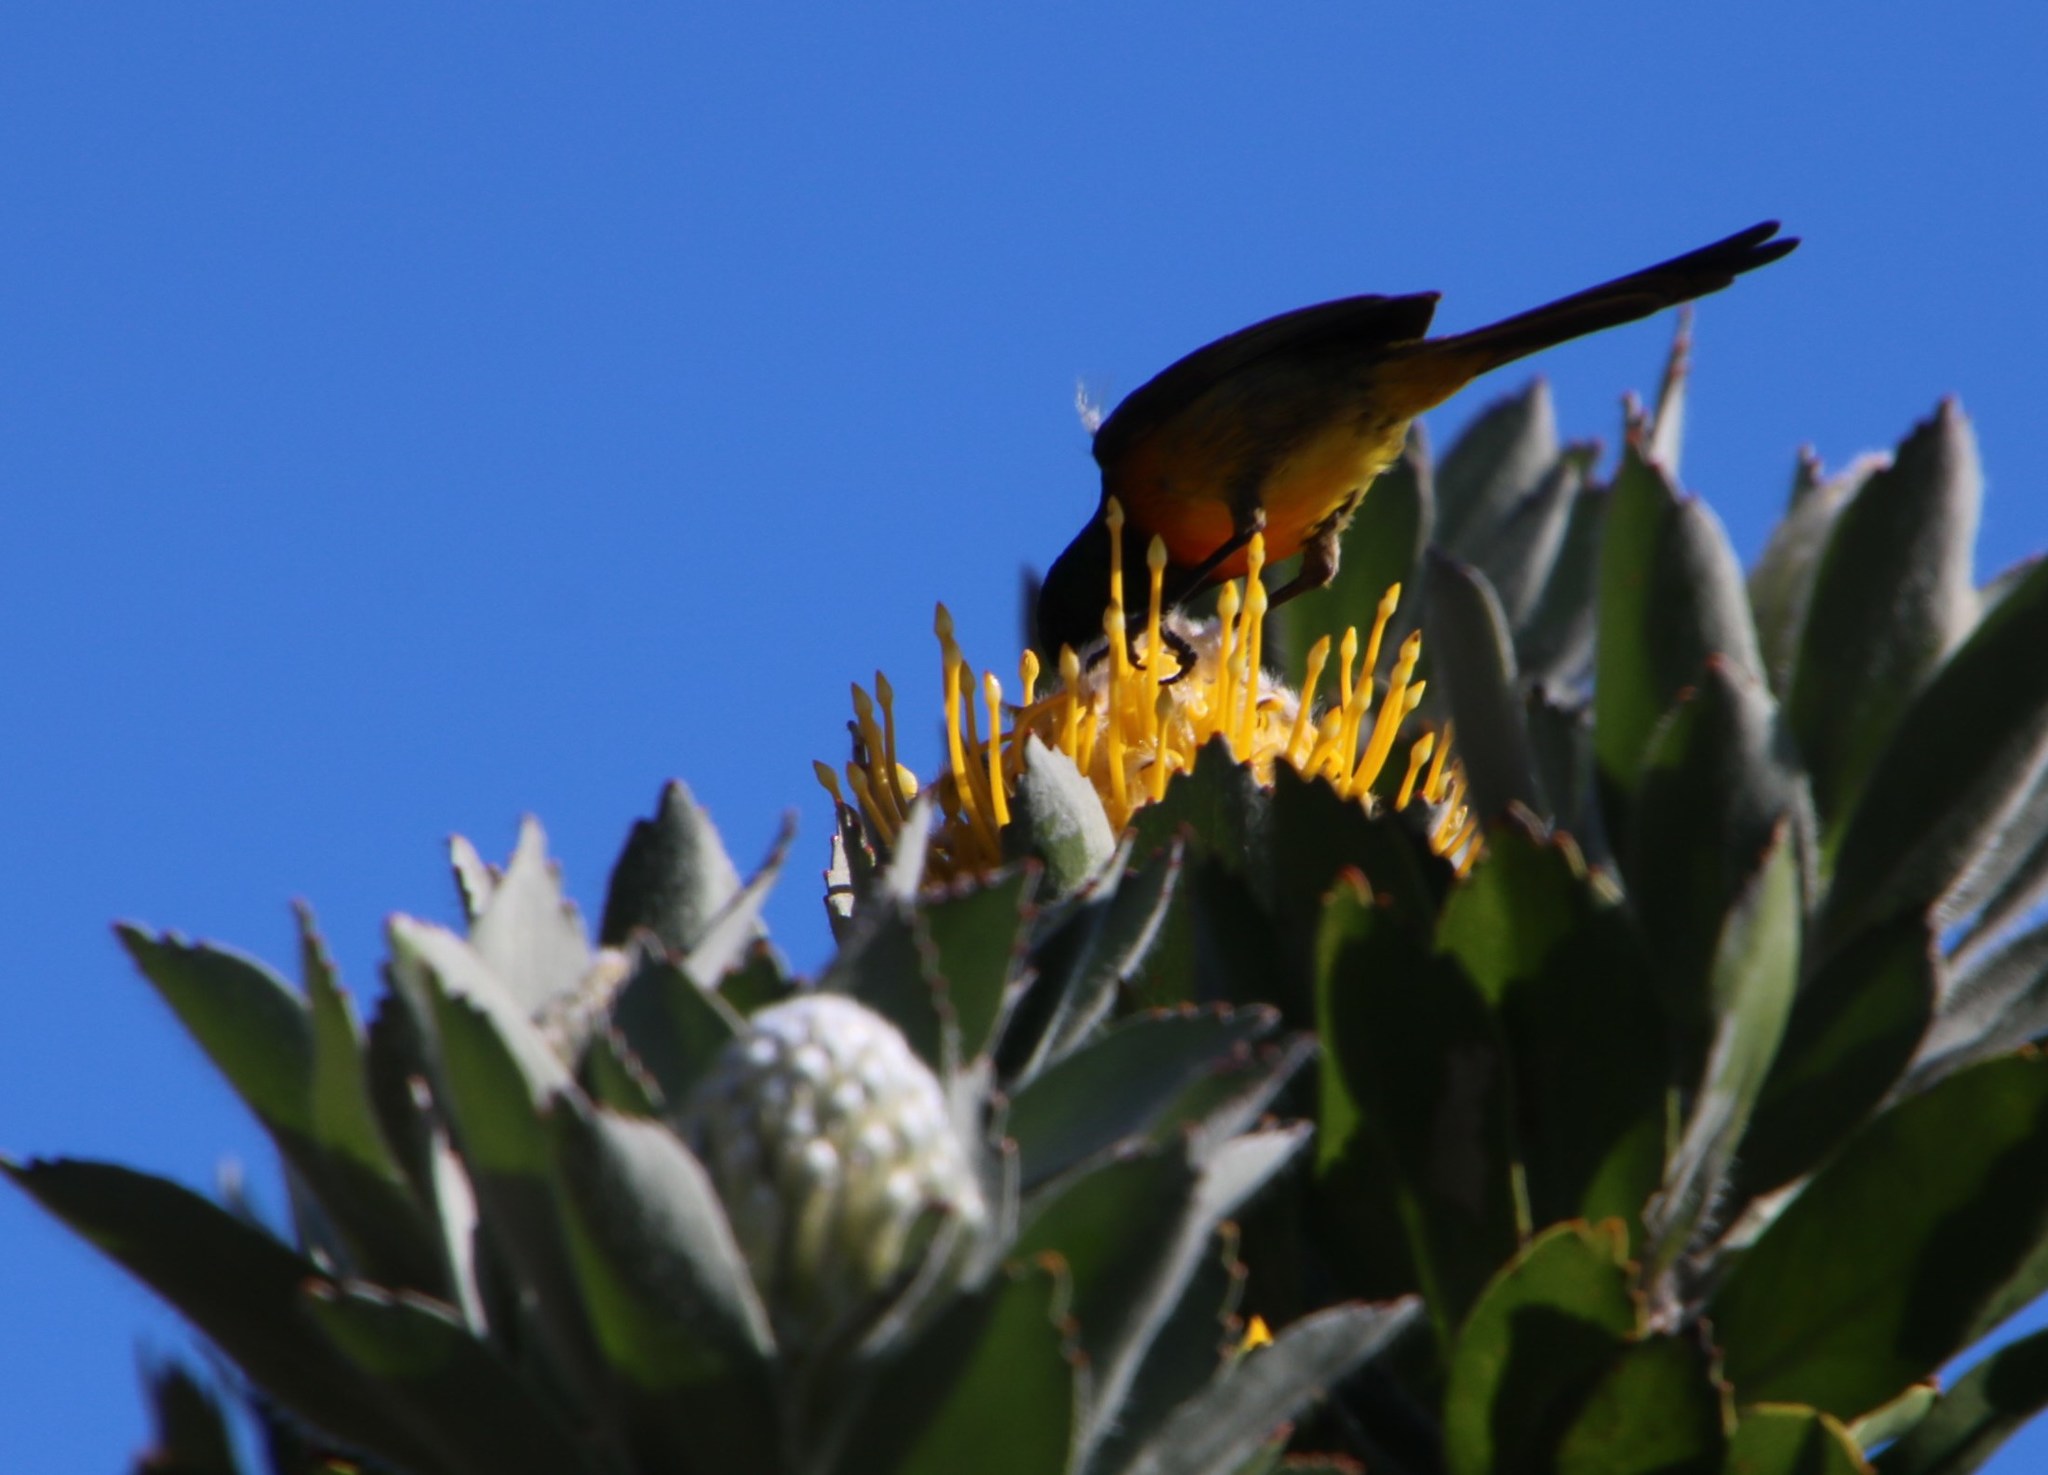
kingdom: Plantae
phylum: Tracheophyta
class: Magnoliopsida
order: Proteales
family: Proteaceae
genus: Leucospermum
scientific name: Leucospermum conocarpodendron
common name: Tree pincushion
